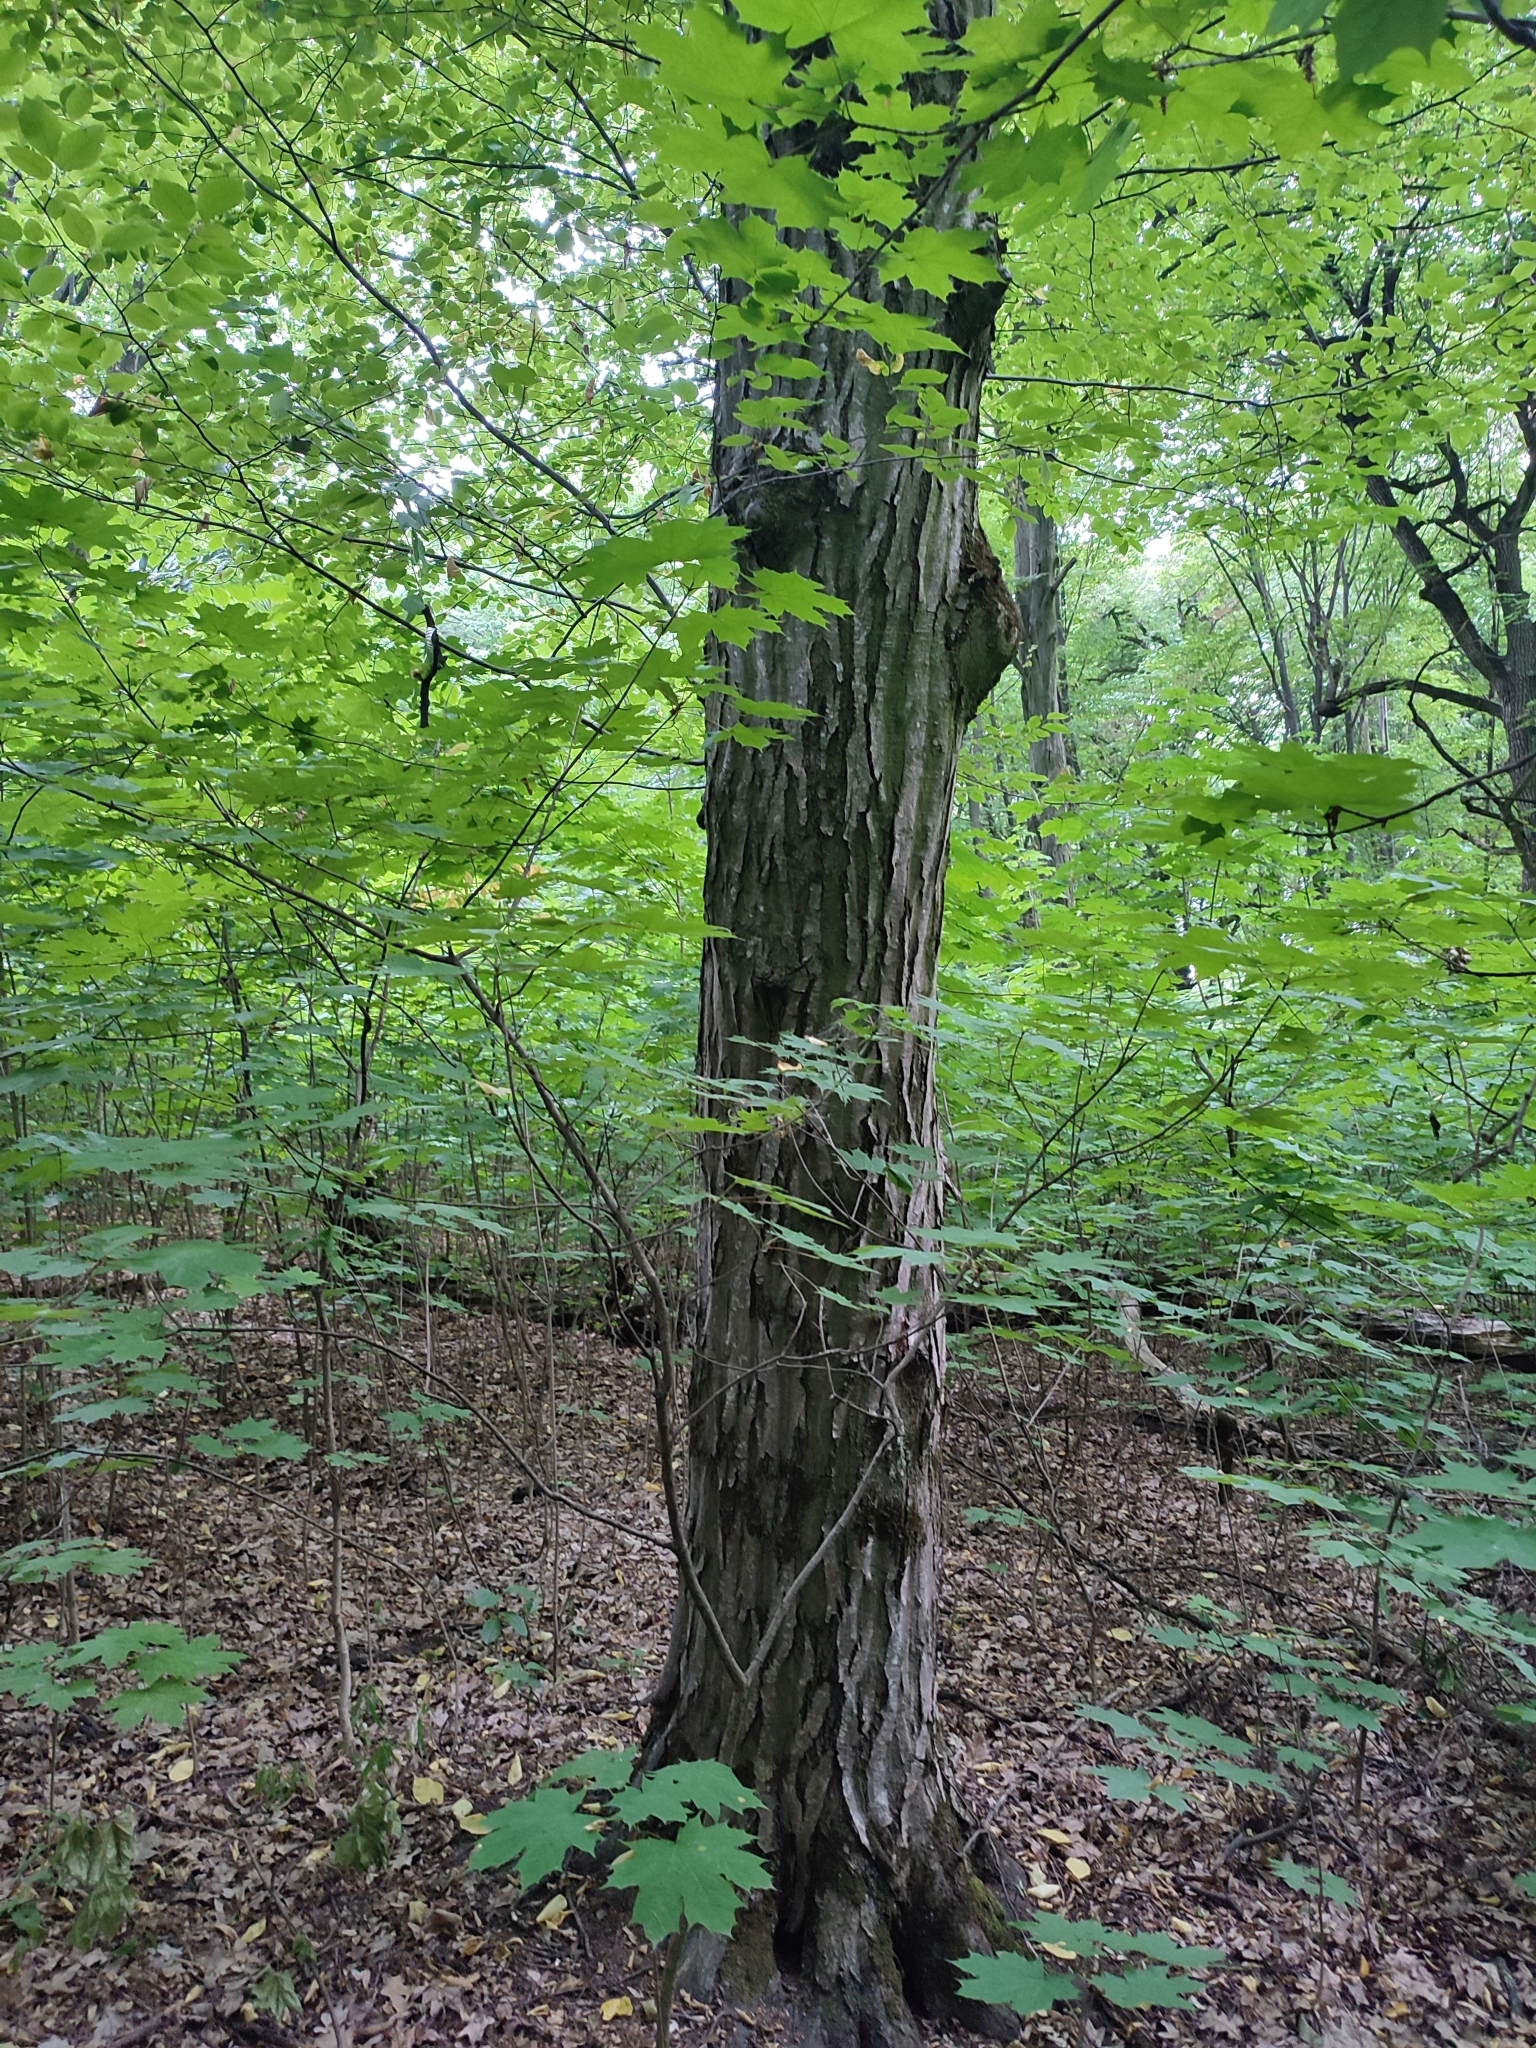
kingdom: Plantae
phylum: Tracheophyta
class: Magnoliopsida
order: Fagales
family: Betulaceae
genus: Carpinus
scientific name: Carpinus betulus
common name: Hornbeam
